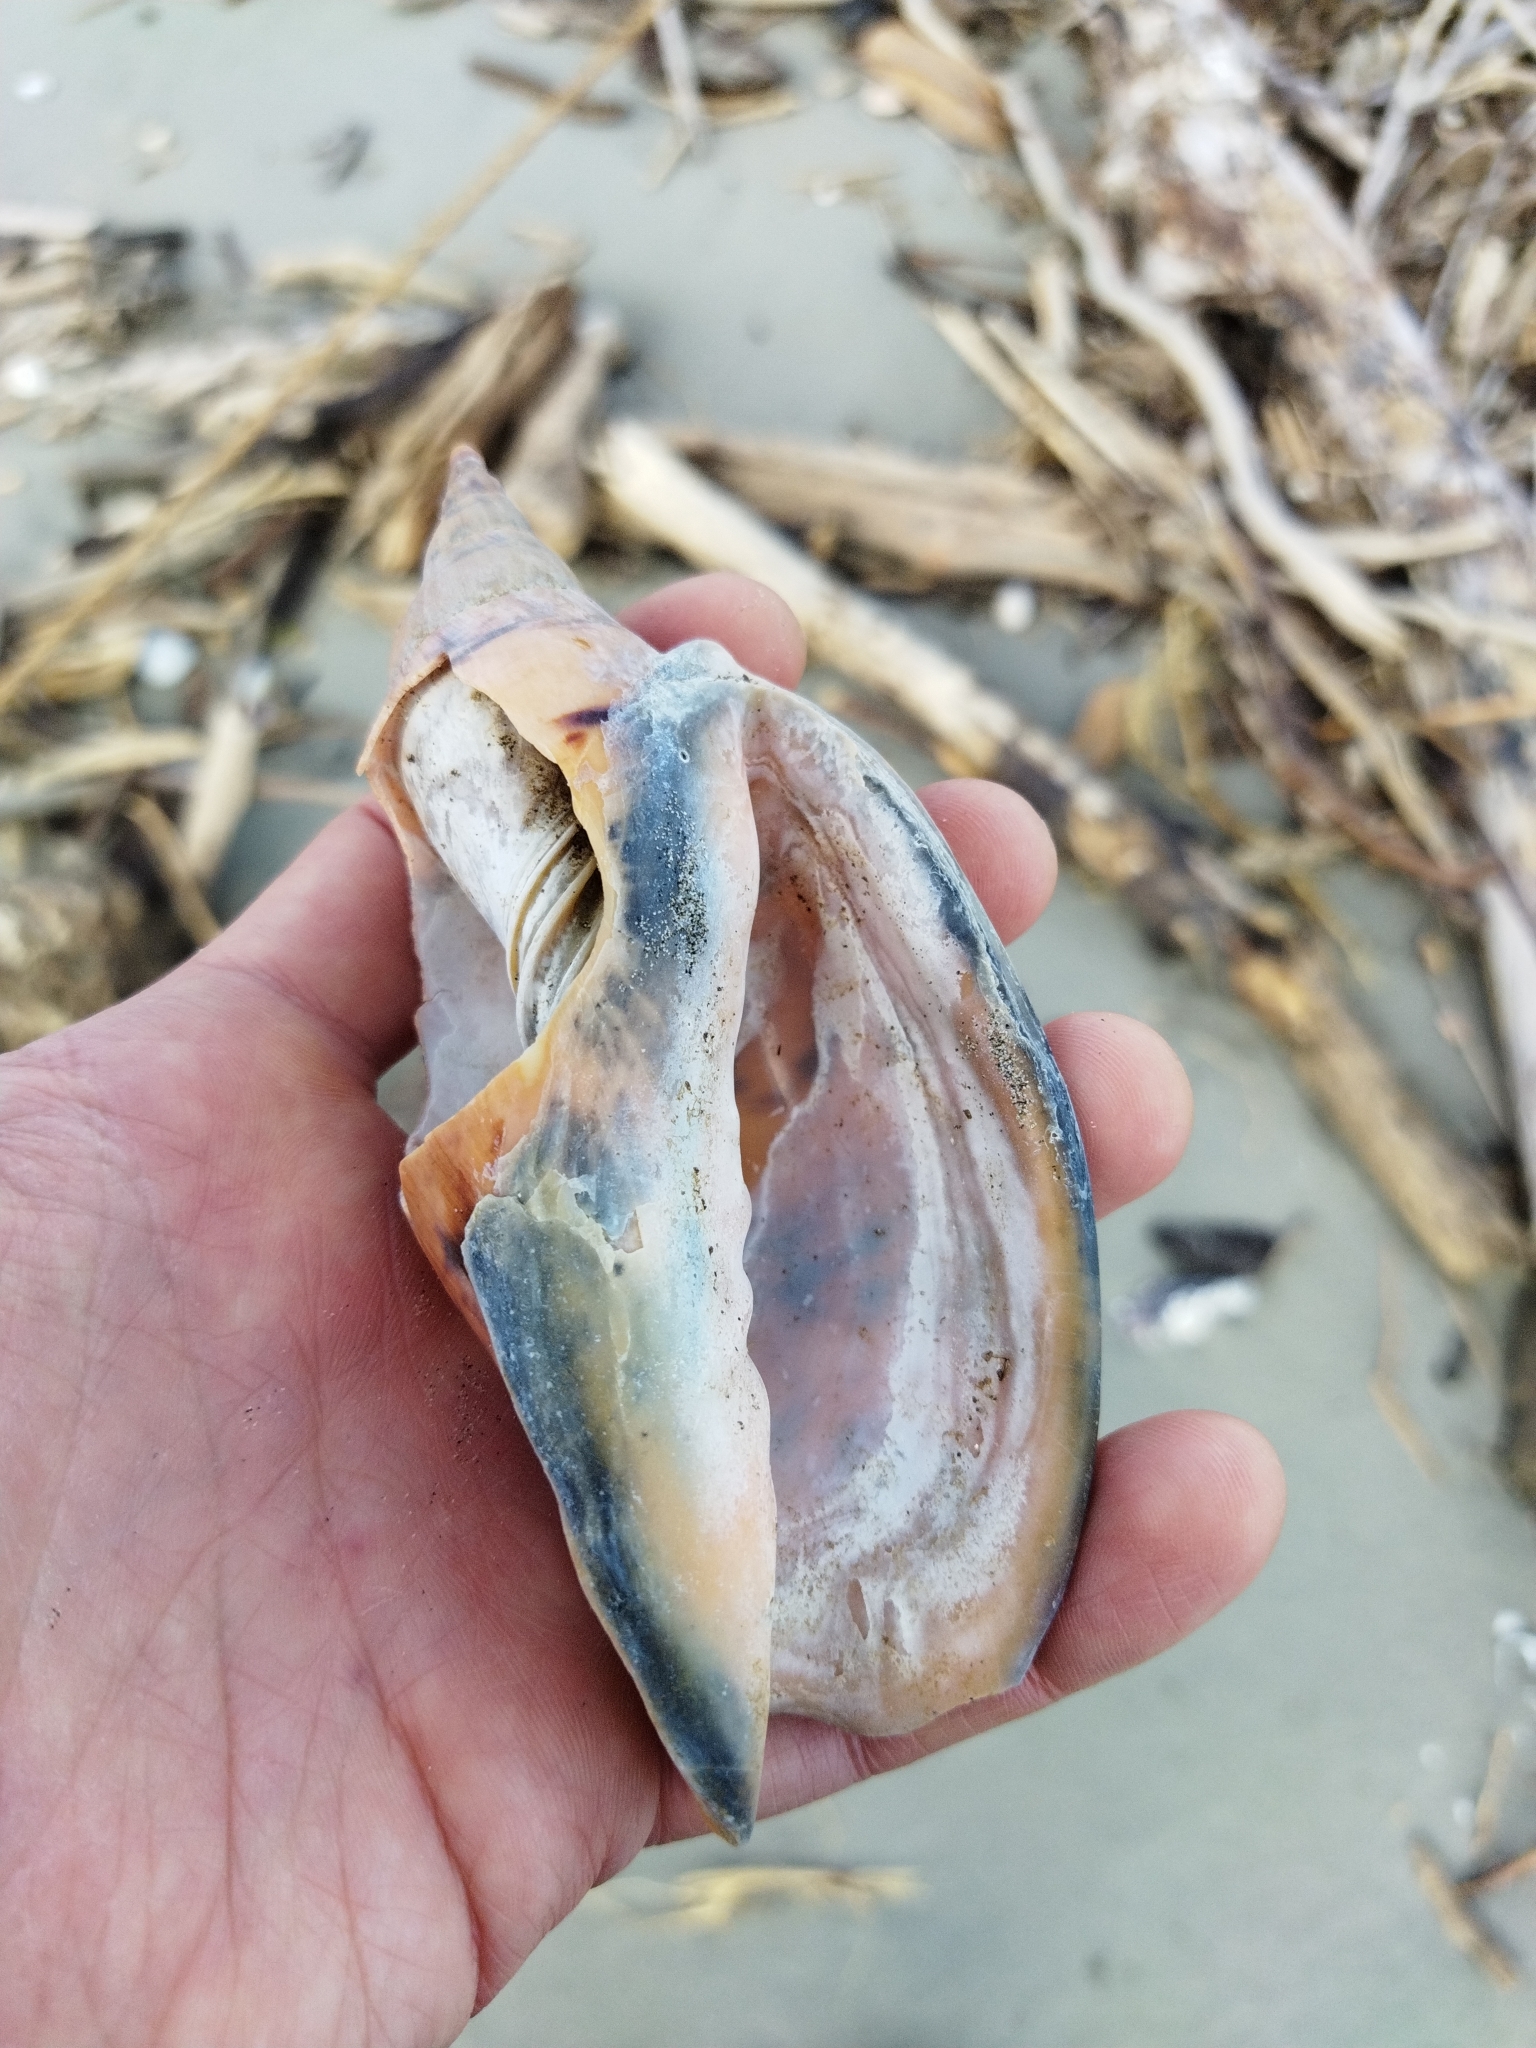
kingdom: Animalia
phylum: Mollusca
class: Gastropoda
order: Neogastropoda
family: Volutidae
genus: Alcithoe
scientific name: Alcithoe arabica
